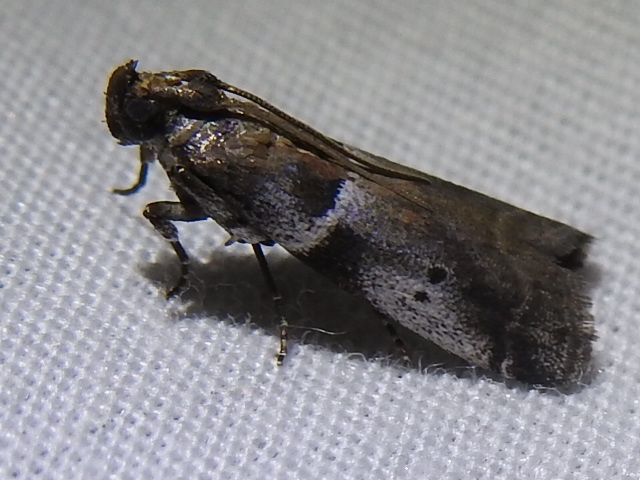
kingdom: Animalia
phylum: Arthropoda
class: Insecta
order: Lepidoptera
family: Pyralidae
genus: Quasisalebria
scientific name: Quasisalebria atratella
